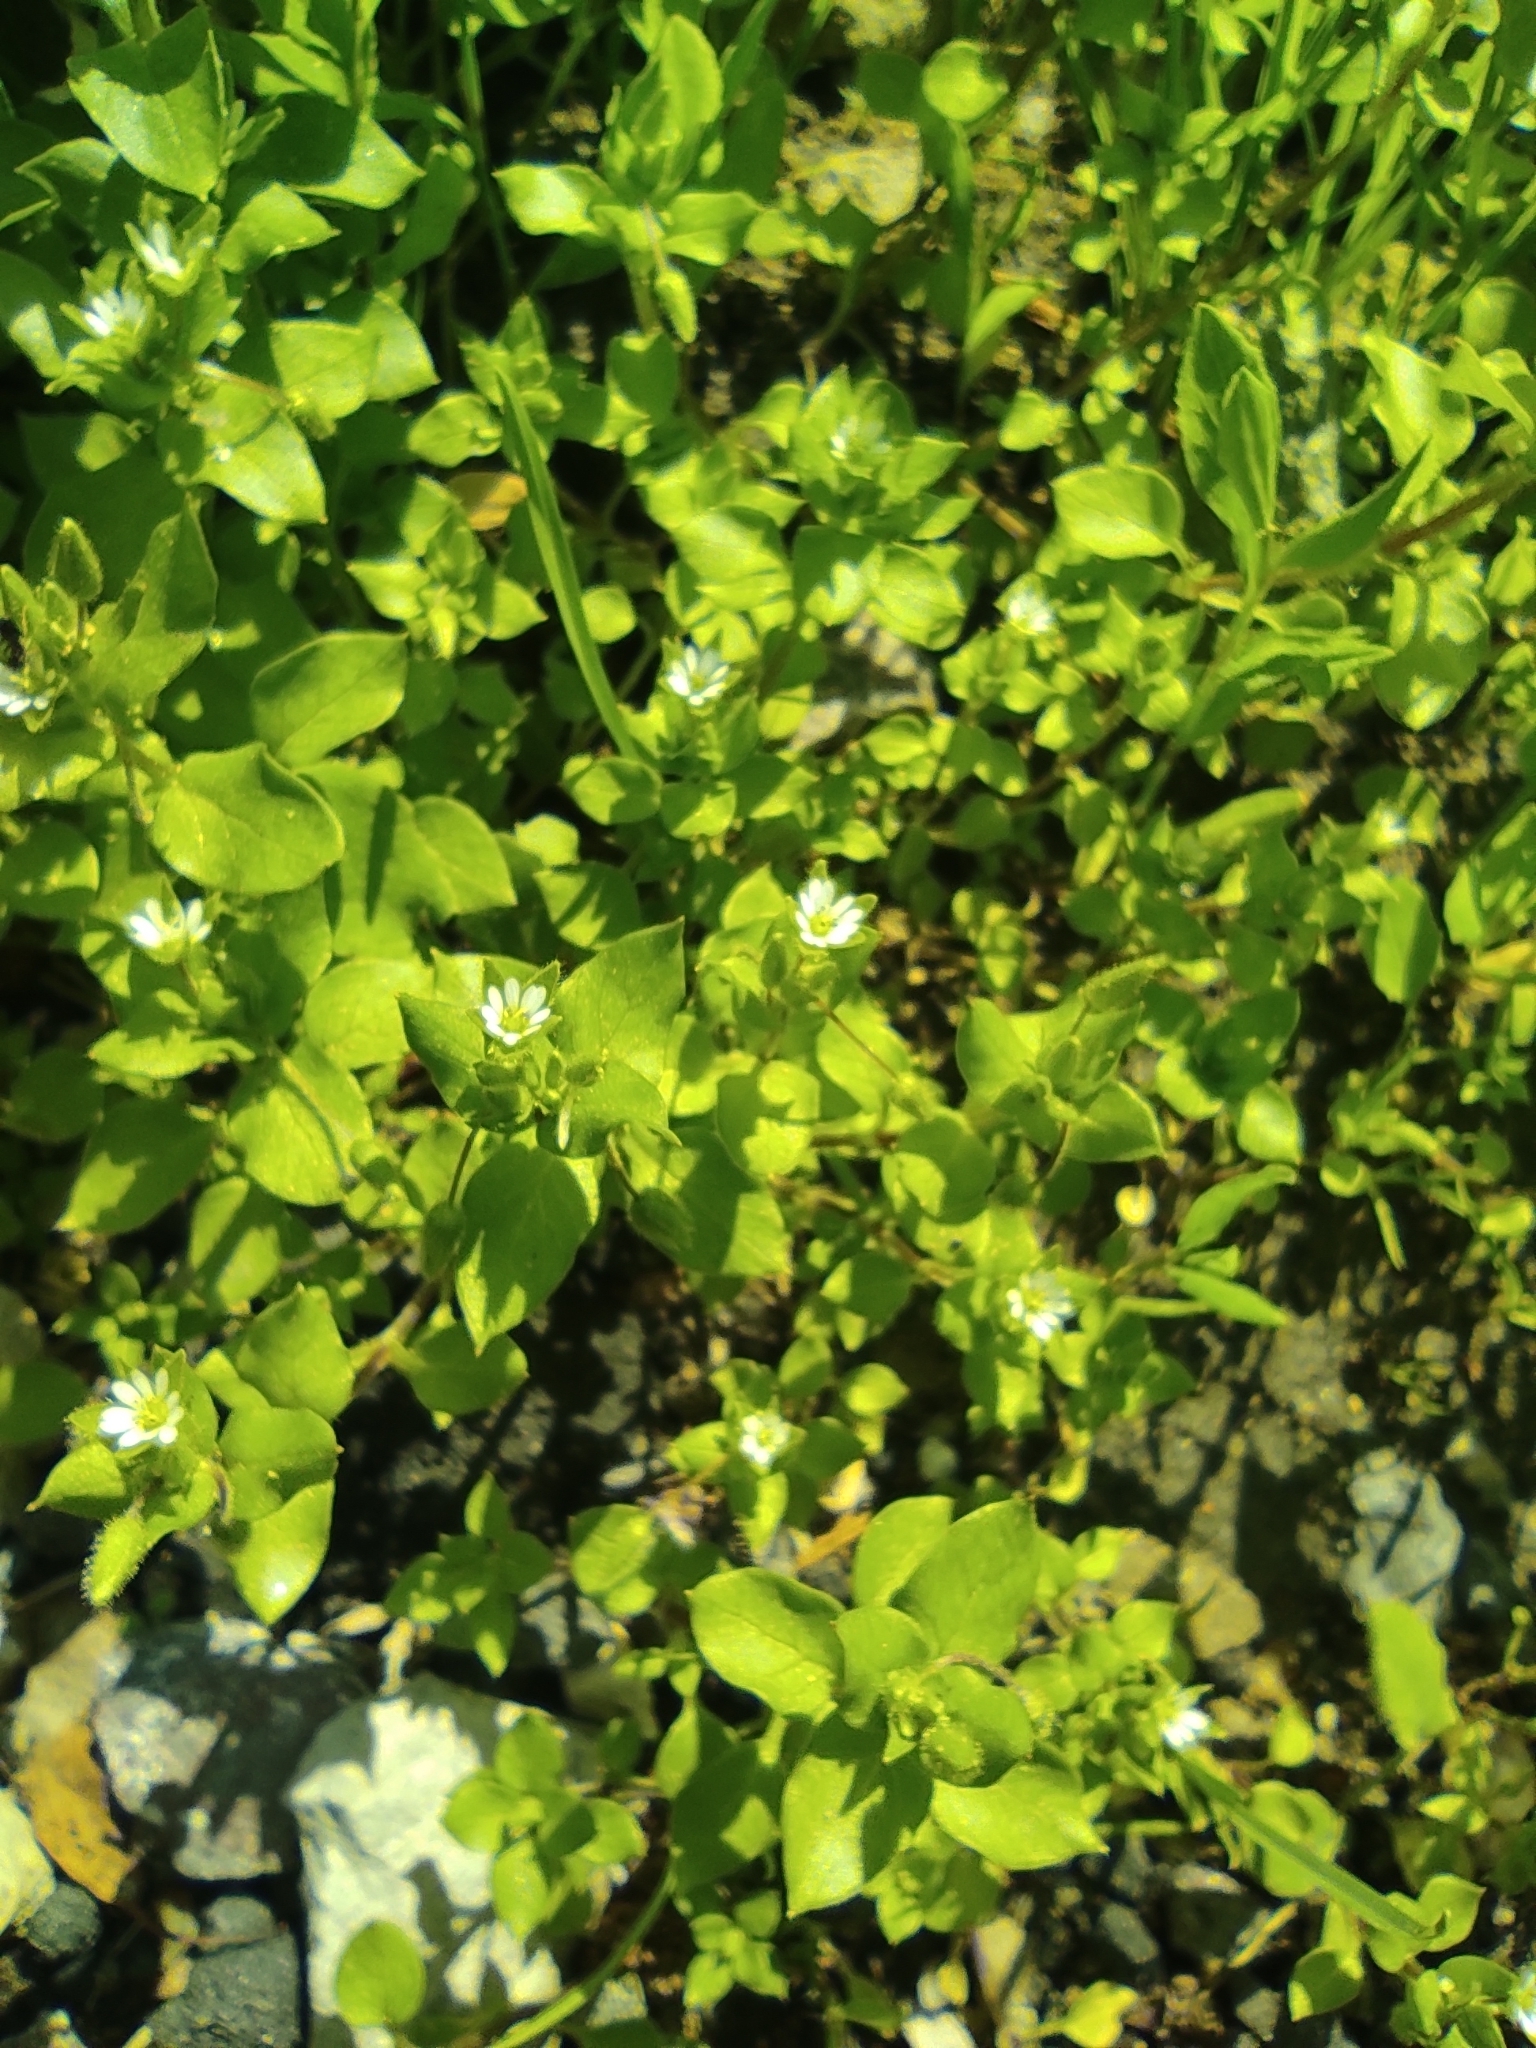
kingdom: Plantae
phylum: Tracheophyta
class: Magnoliopsida
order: Caryophyllales
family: Caryophyllaceae
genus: Stellaria
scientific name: Stellaria media
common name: Common chickweed
